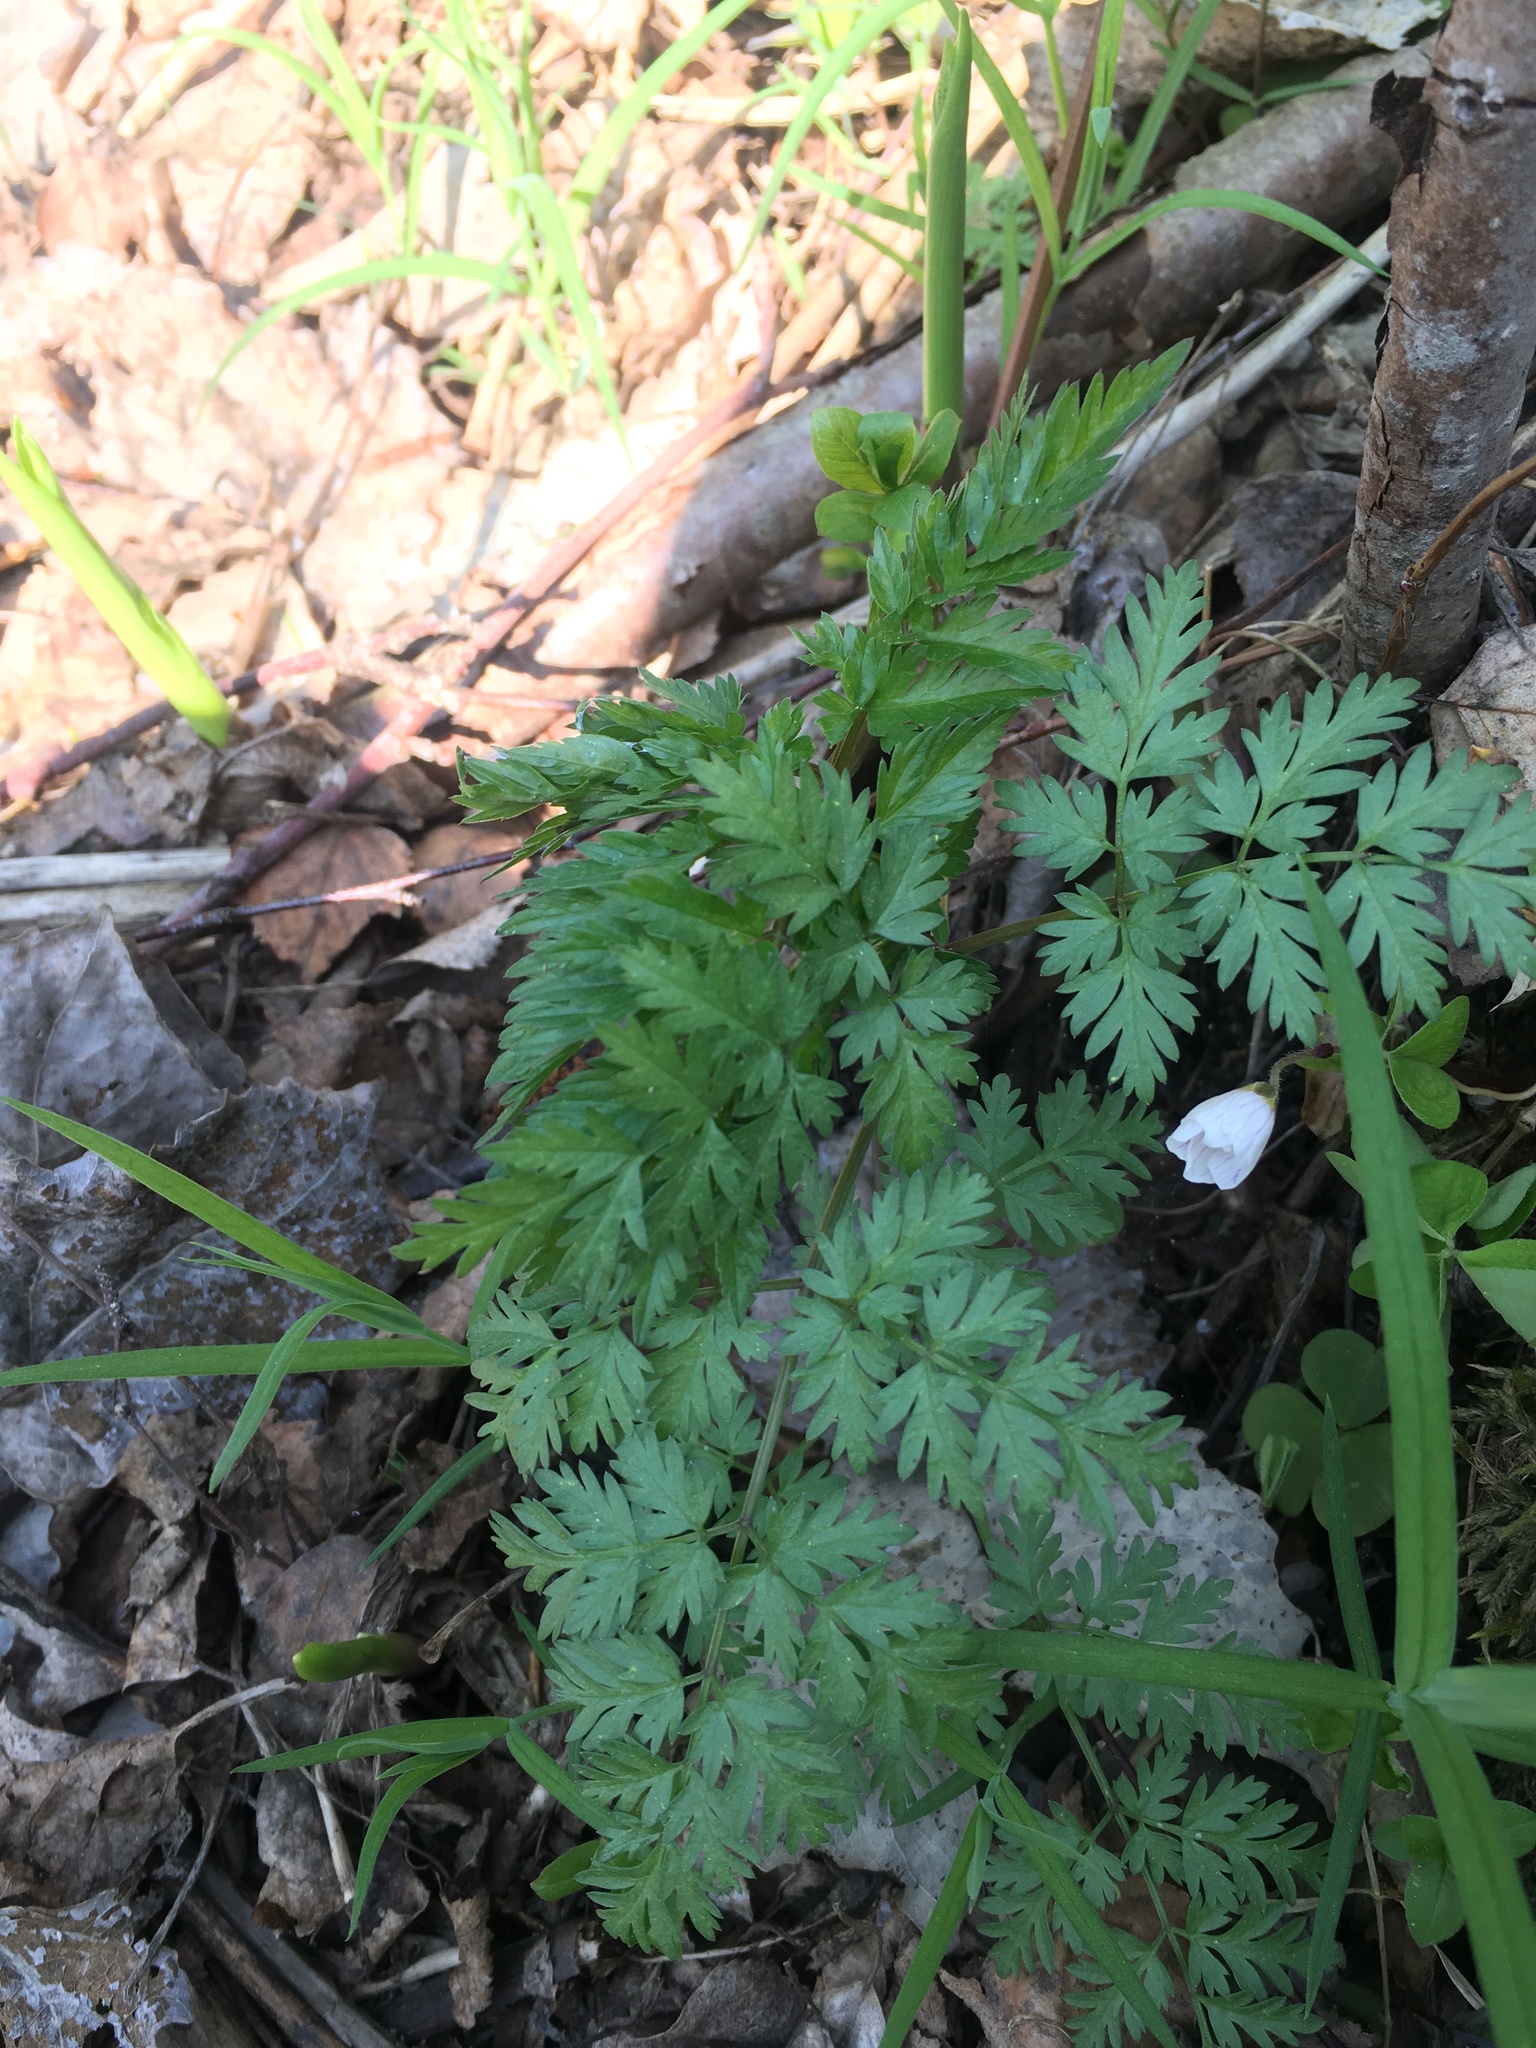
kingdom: Plantae
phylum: Tracheophyta
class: Magnoliopsida
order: Apiales
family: Apiaceae
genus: Anthriscus
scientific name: Anthriscus sylvestris
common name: Cow parsley
